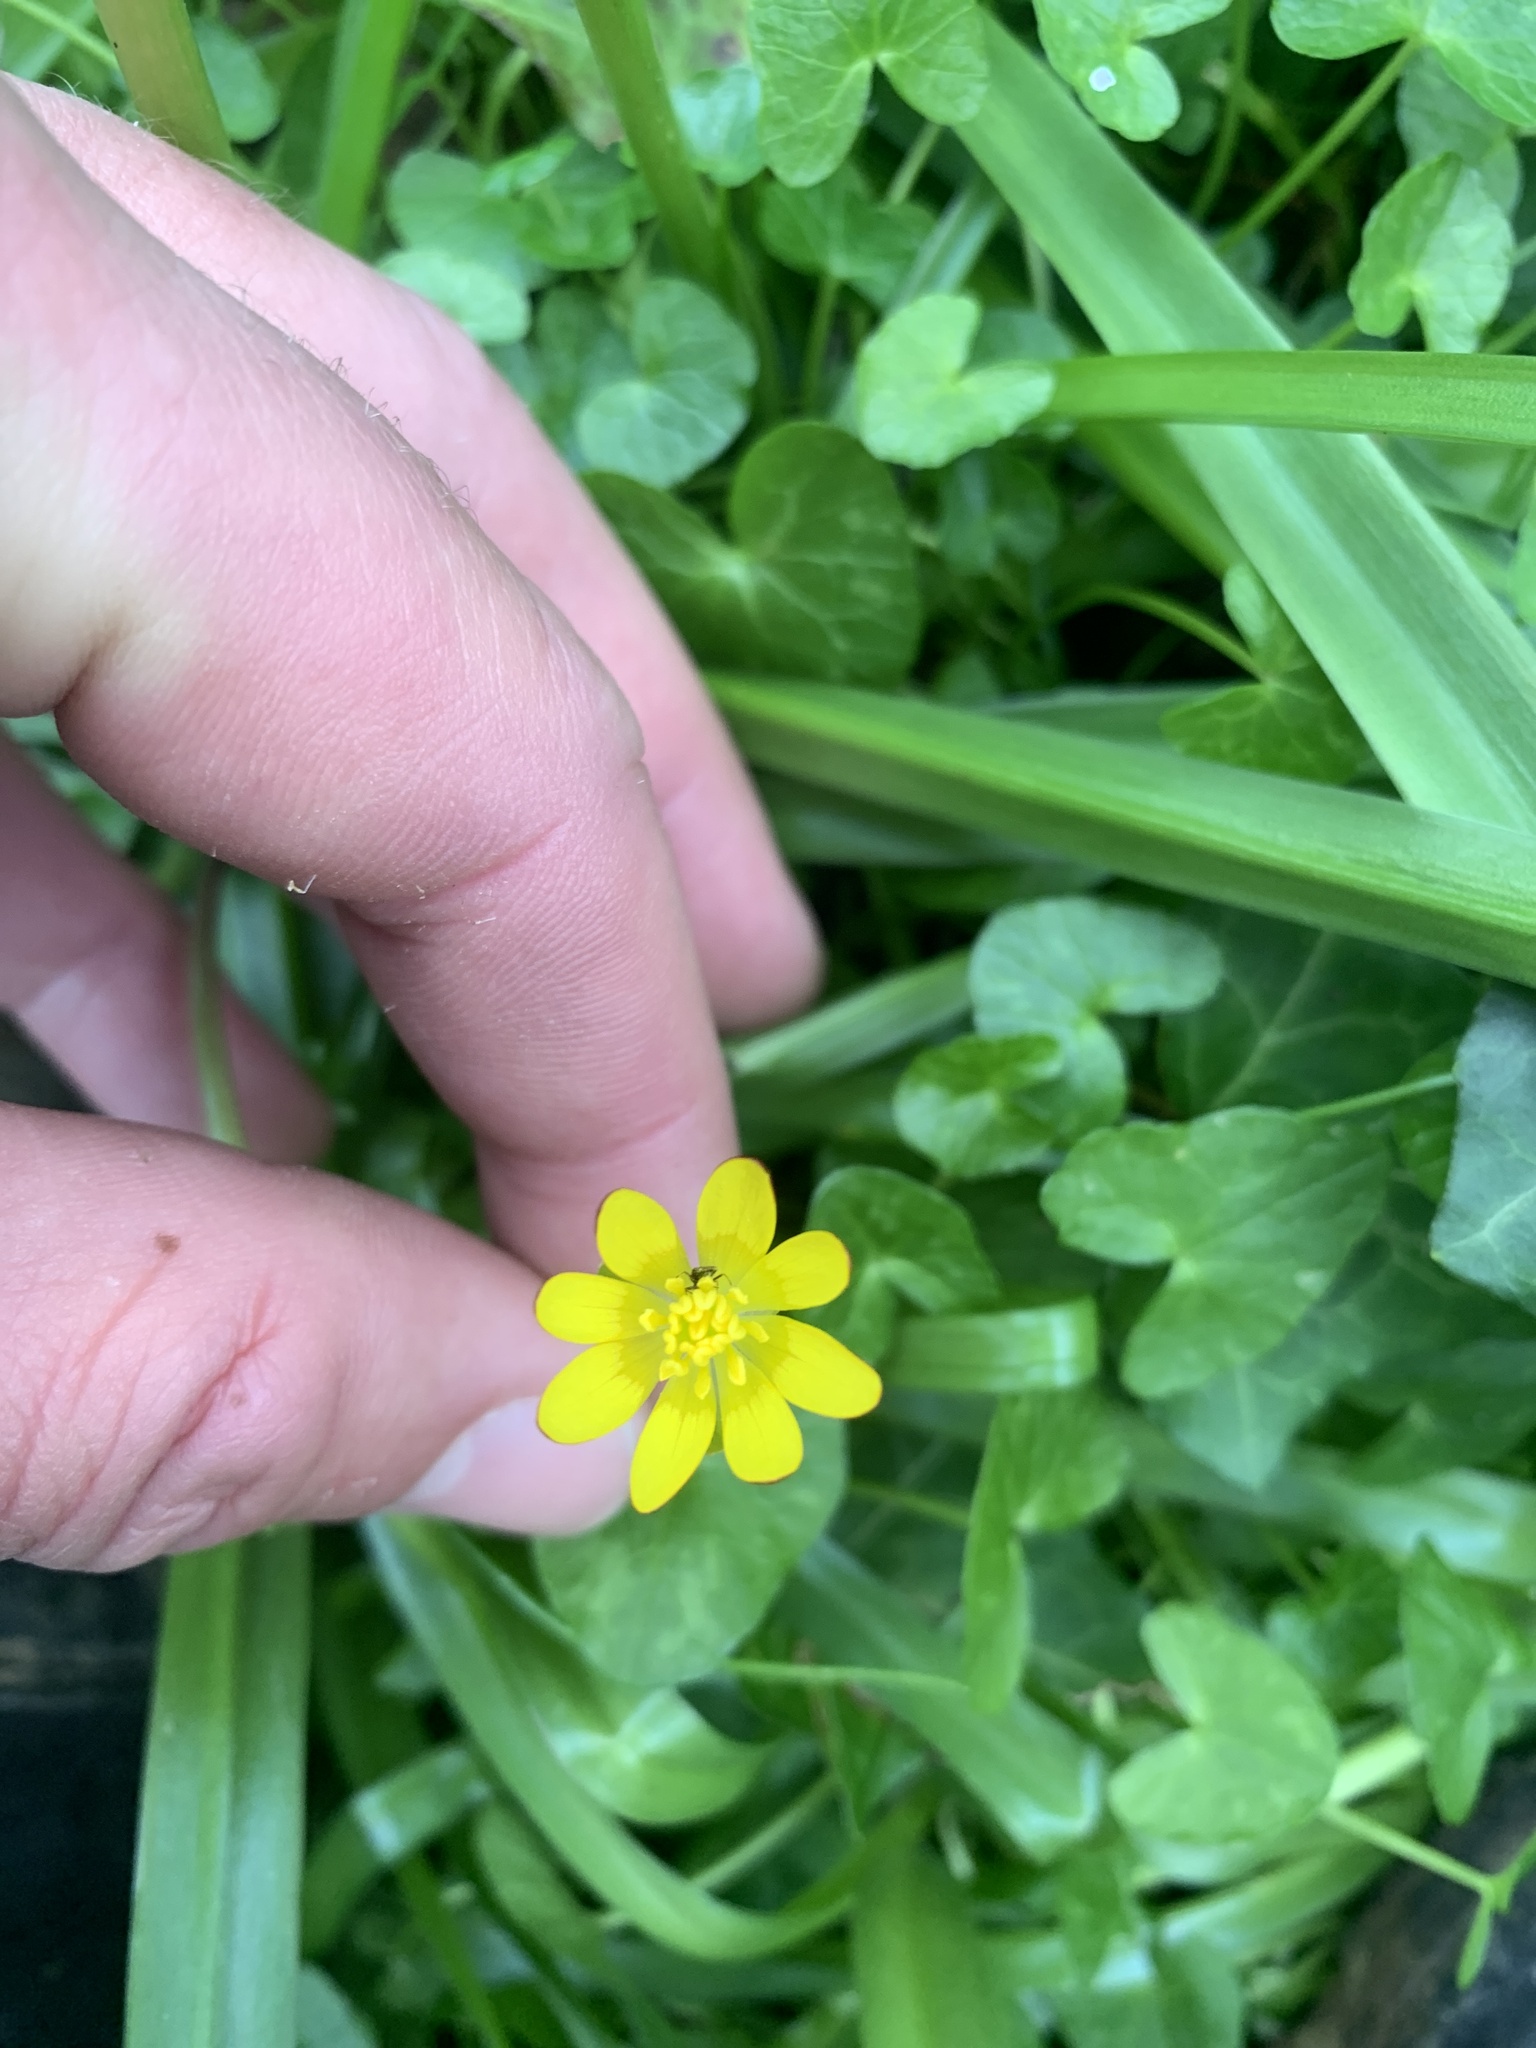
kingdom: Plantae
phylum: Tracheophyta
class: Magnoliopsida
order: Ranunculales
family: Ranunculaceae
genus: Ficaria
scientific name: Ficaria verna
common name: Lesser celandine
